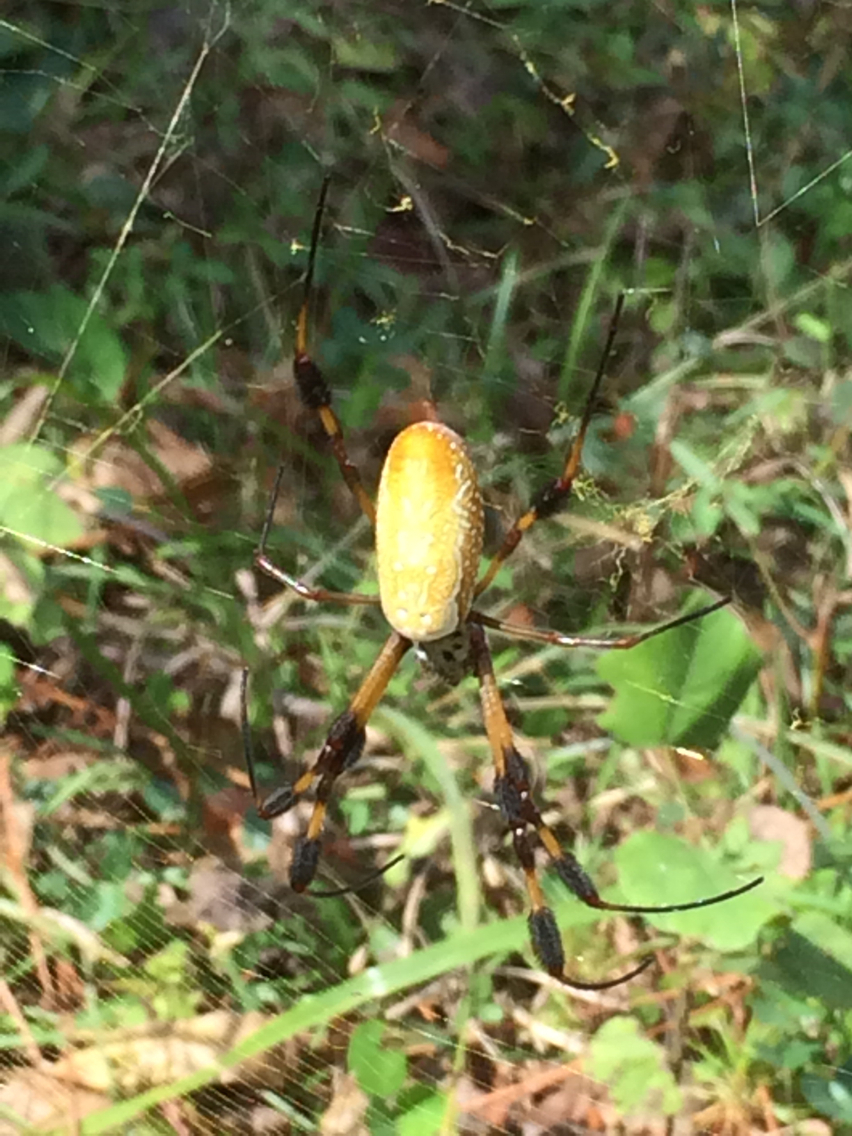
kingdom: Animalia
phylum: Arthropoda
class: Arachnida
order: Araneae
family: Araneidae
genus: Trichonephila
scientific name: Trichonephila clavipes
